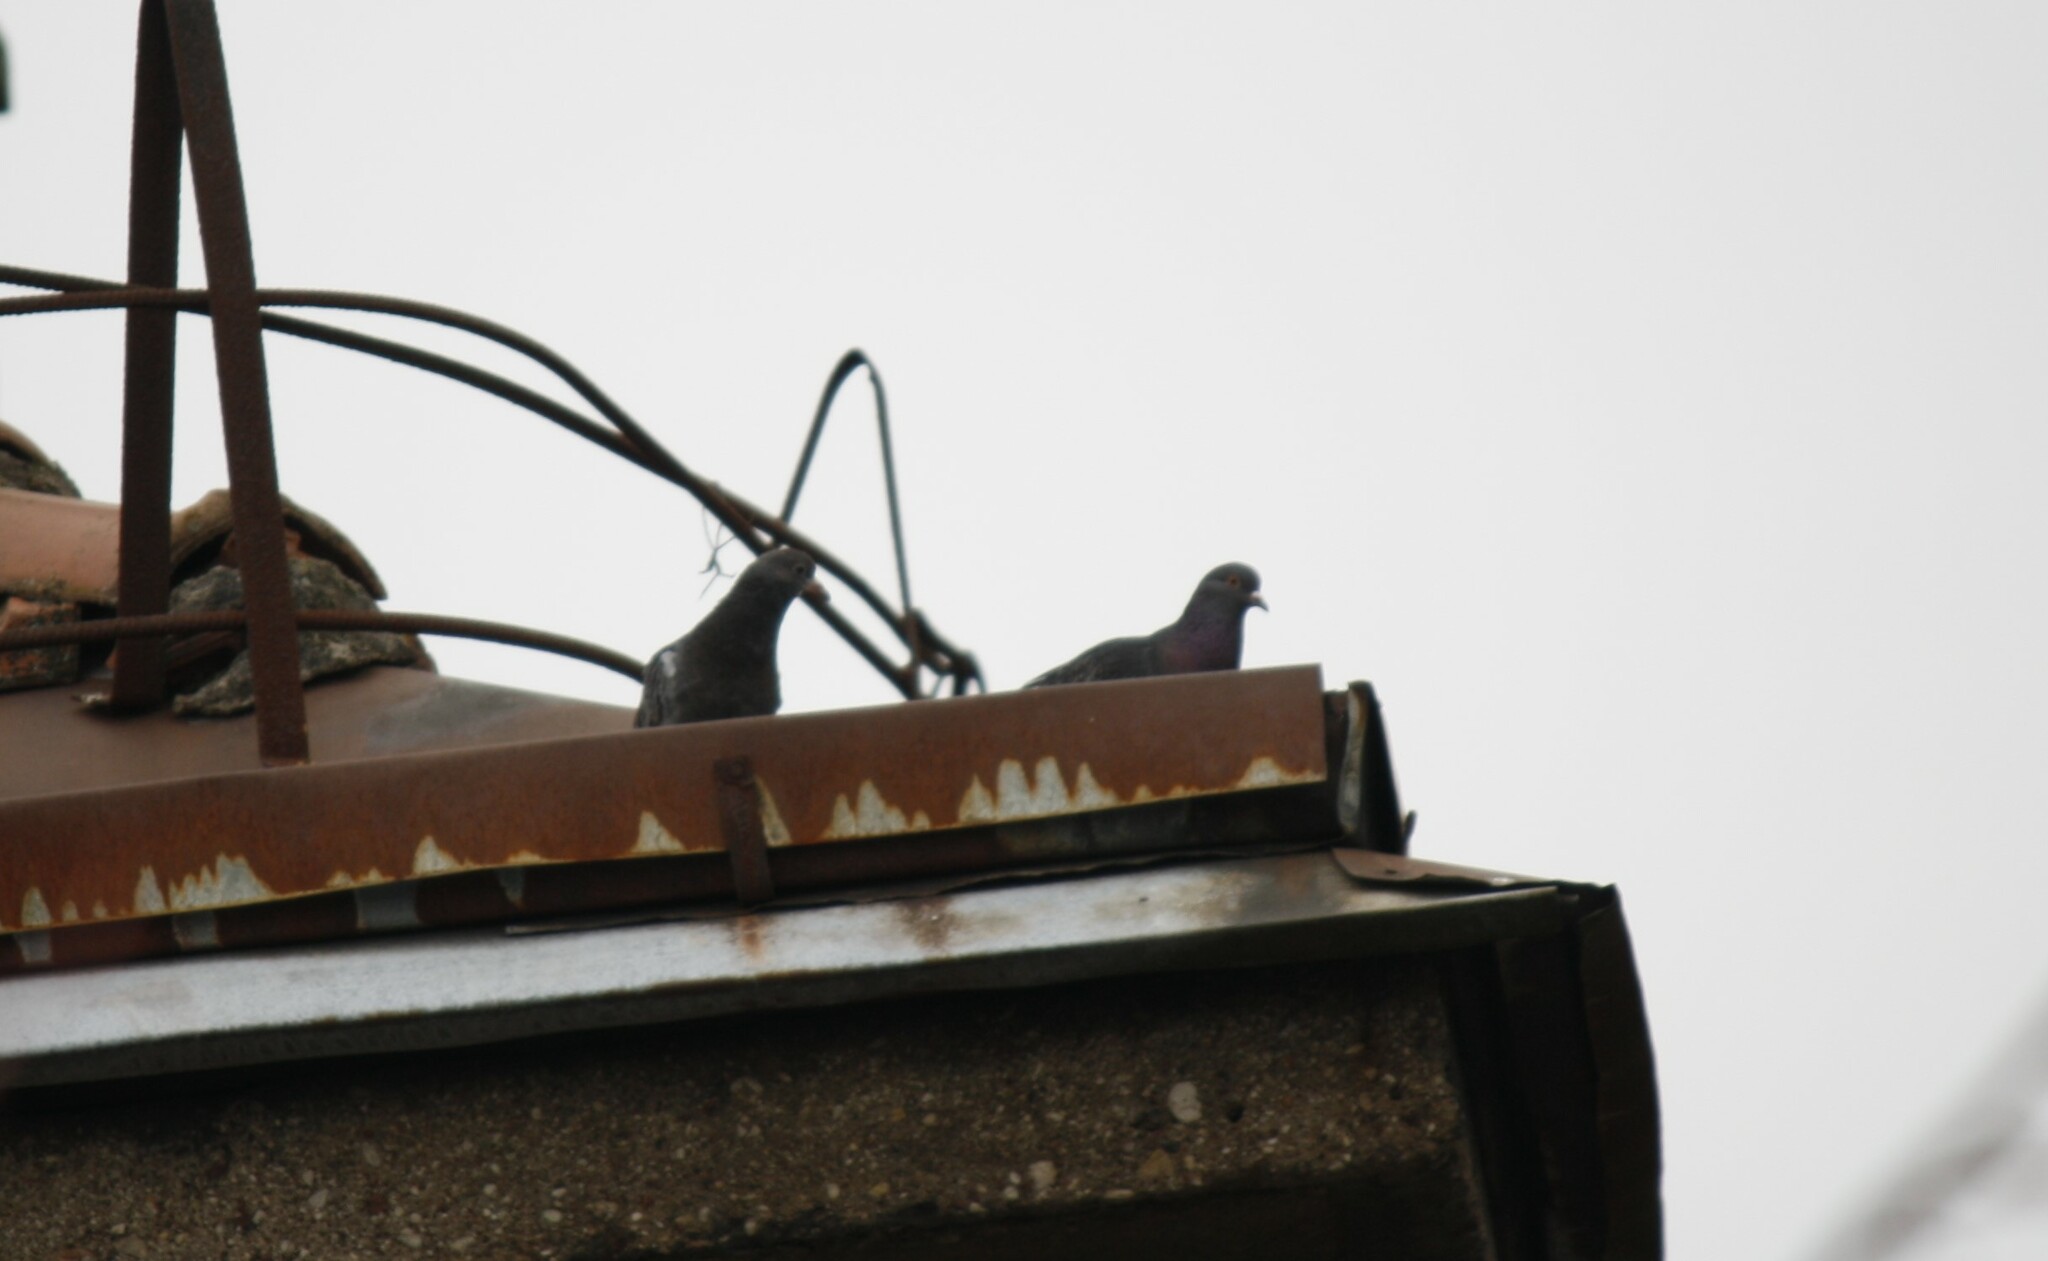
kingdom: Animalia
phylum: Chordata
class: Aves
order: Columbiformes
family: Columbidae
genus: Columba
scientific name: Columba livia
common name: Rock pigeon
